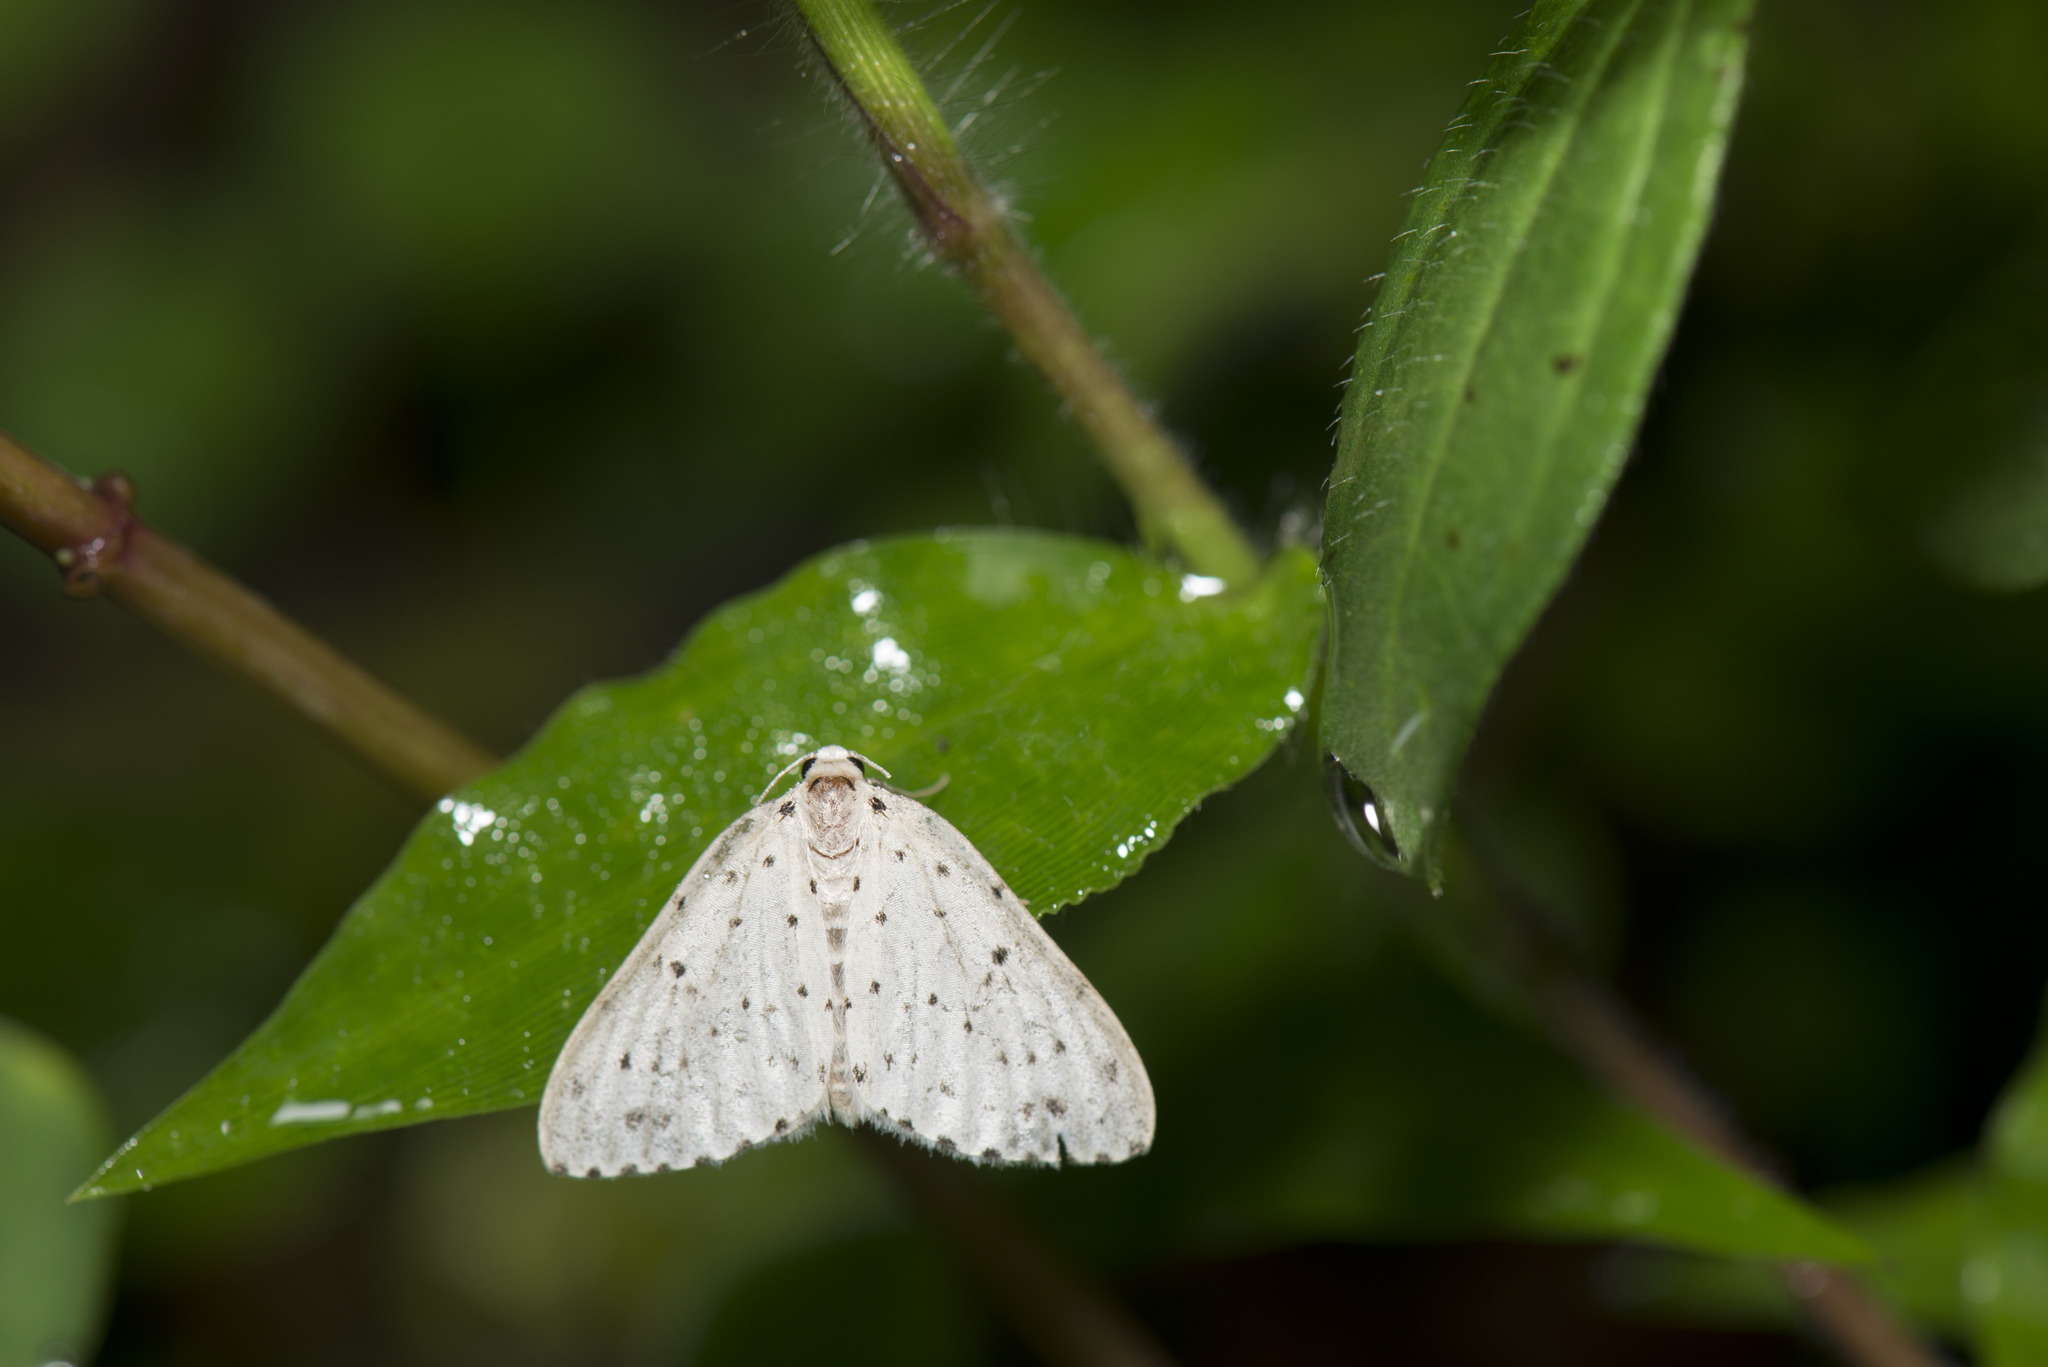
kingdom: Animalia
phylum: Arthropoda
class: Insecta
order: Lepidoptera
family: Geometridae
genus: Naxidia
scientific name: Naxidia punctata
